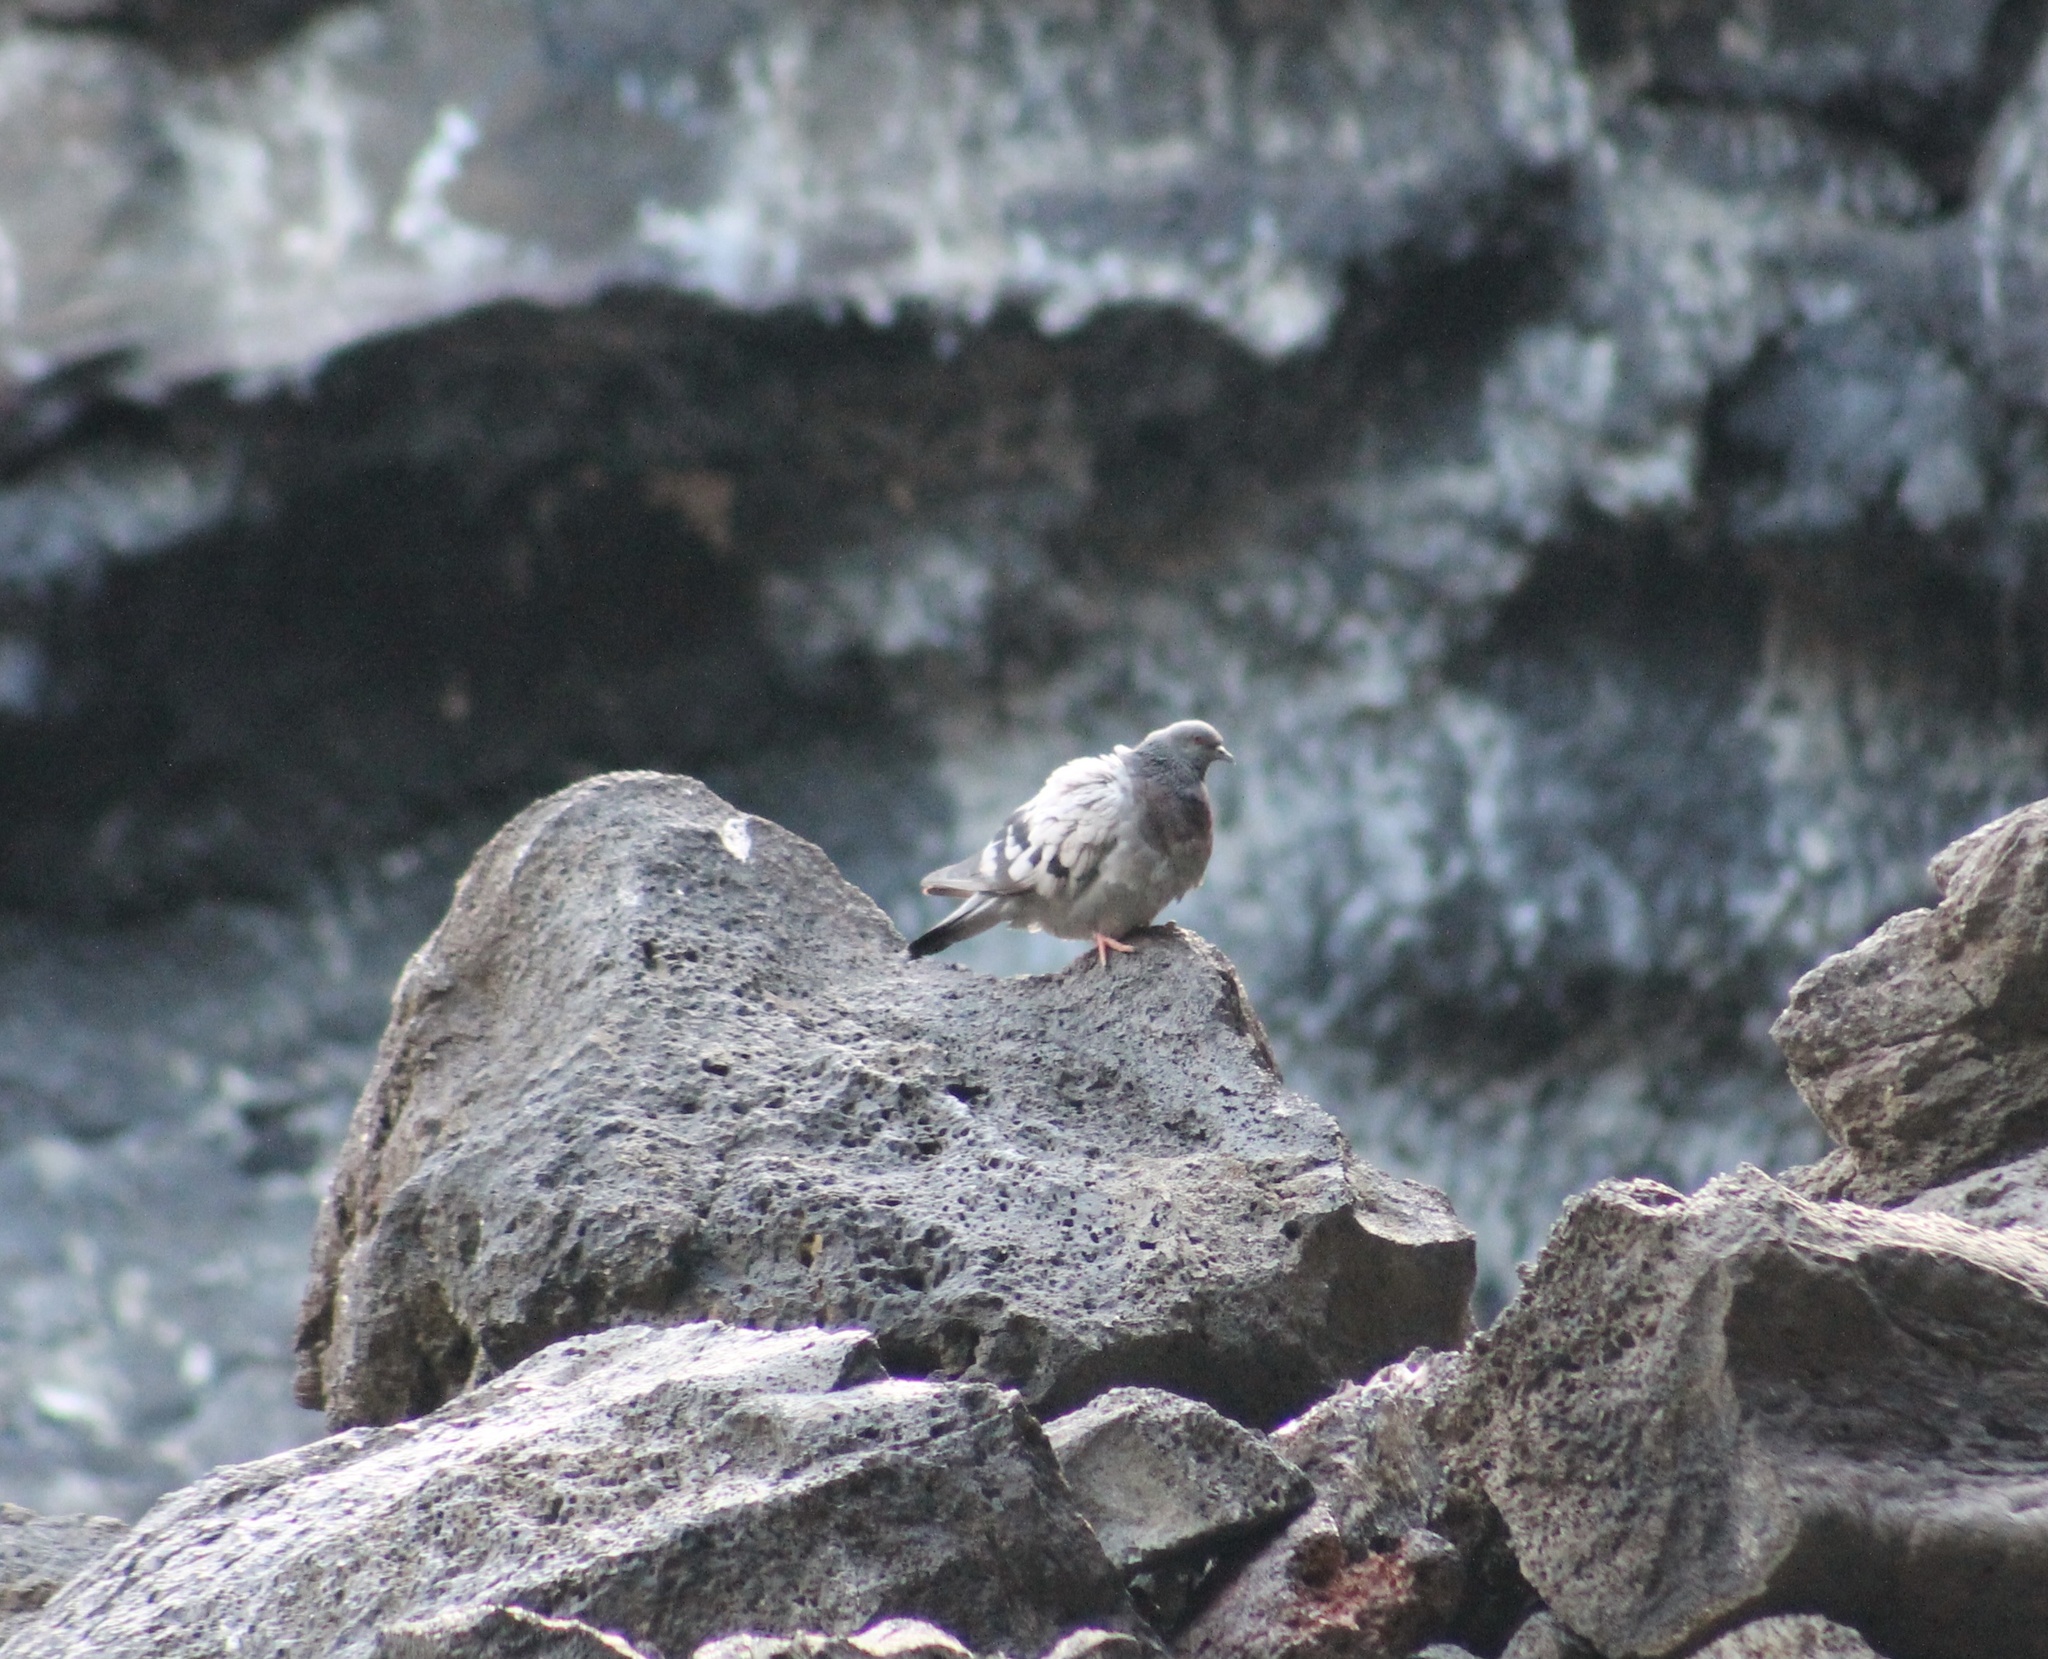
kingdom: Animalia
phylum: Chordata
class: Aves
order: Columbiformes
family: Columbidae
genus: Columba
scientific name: Columba livia
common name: Rock pigeon
